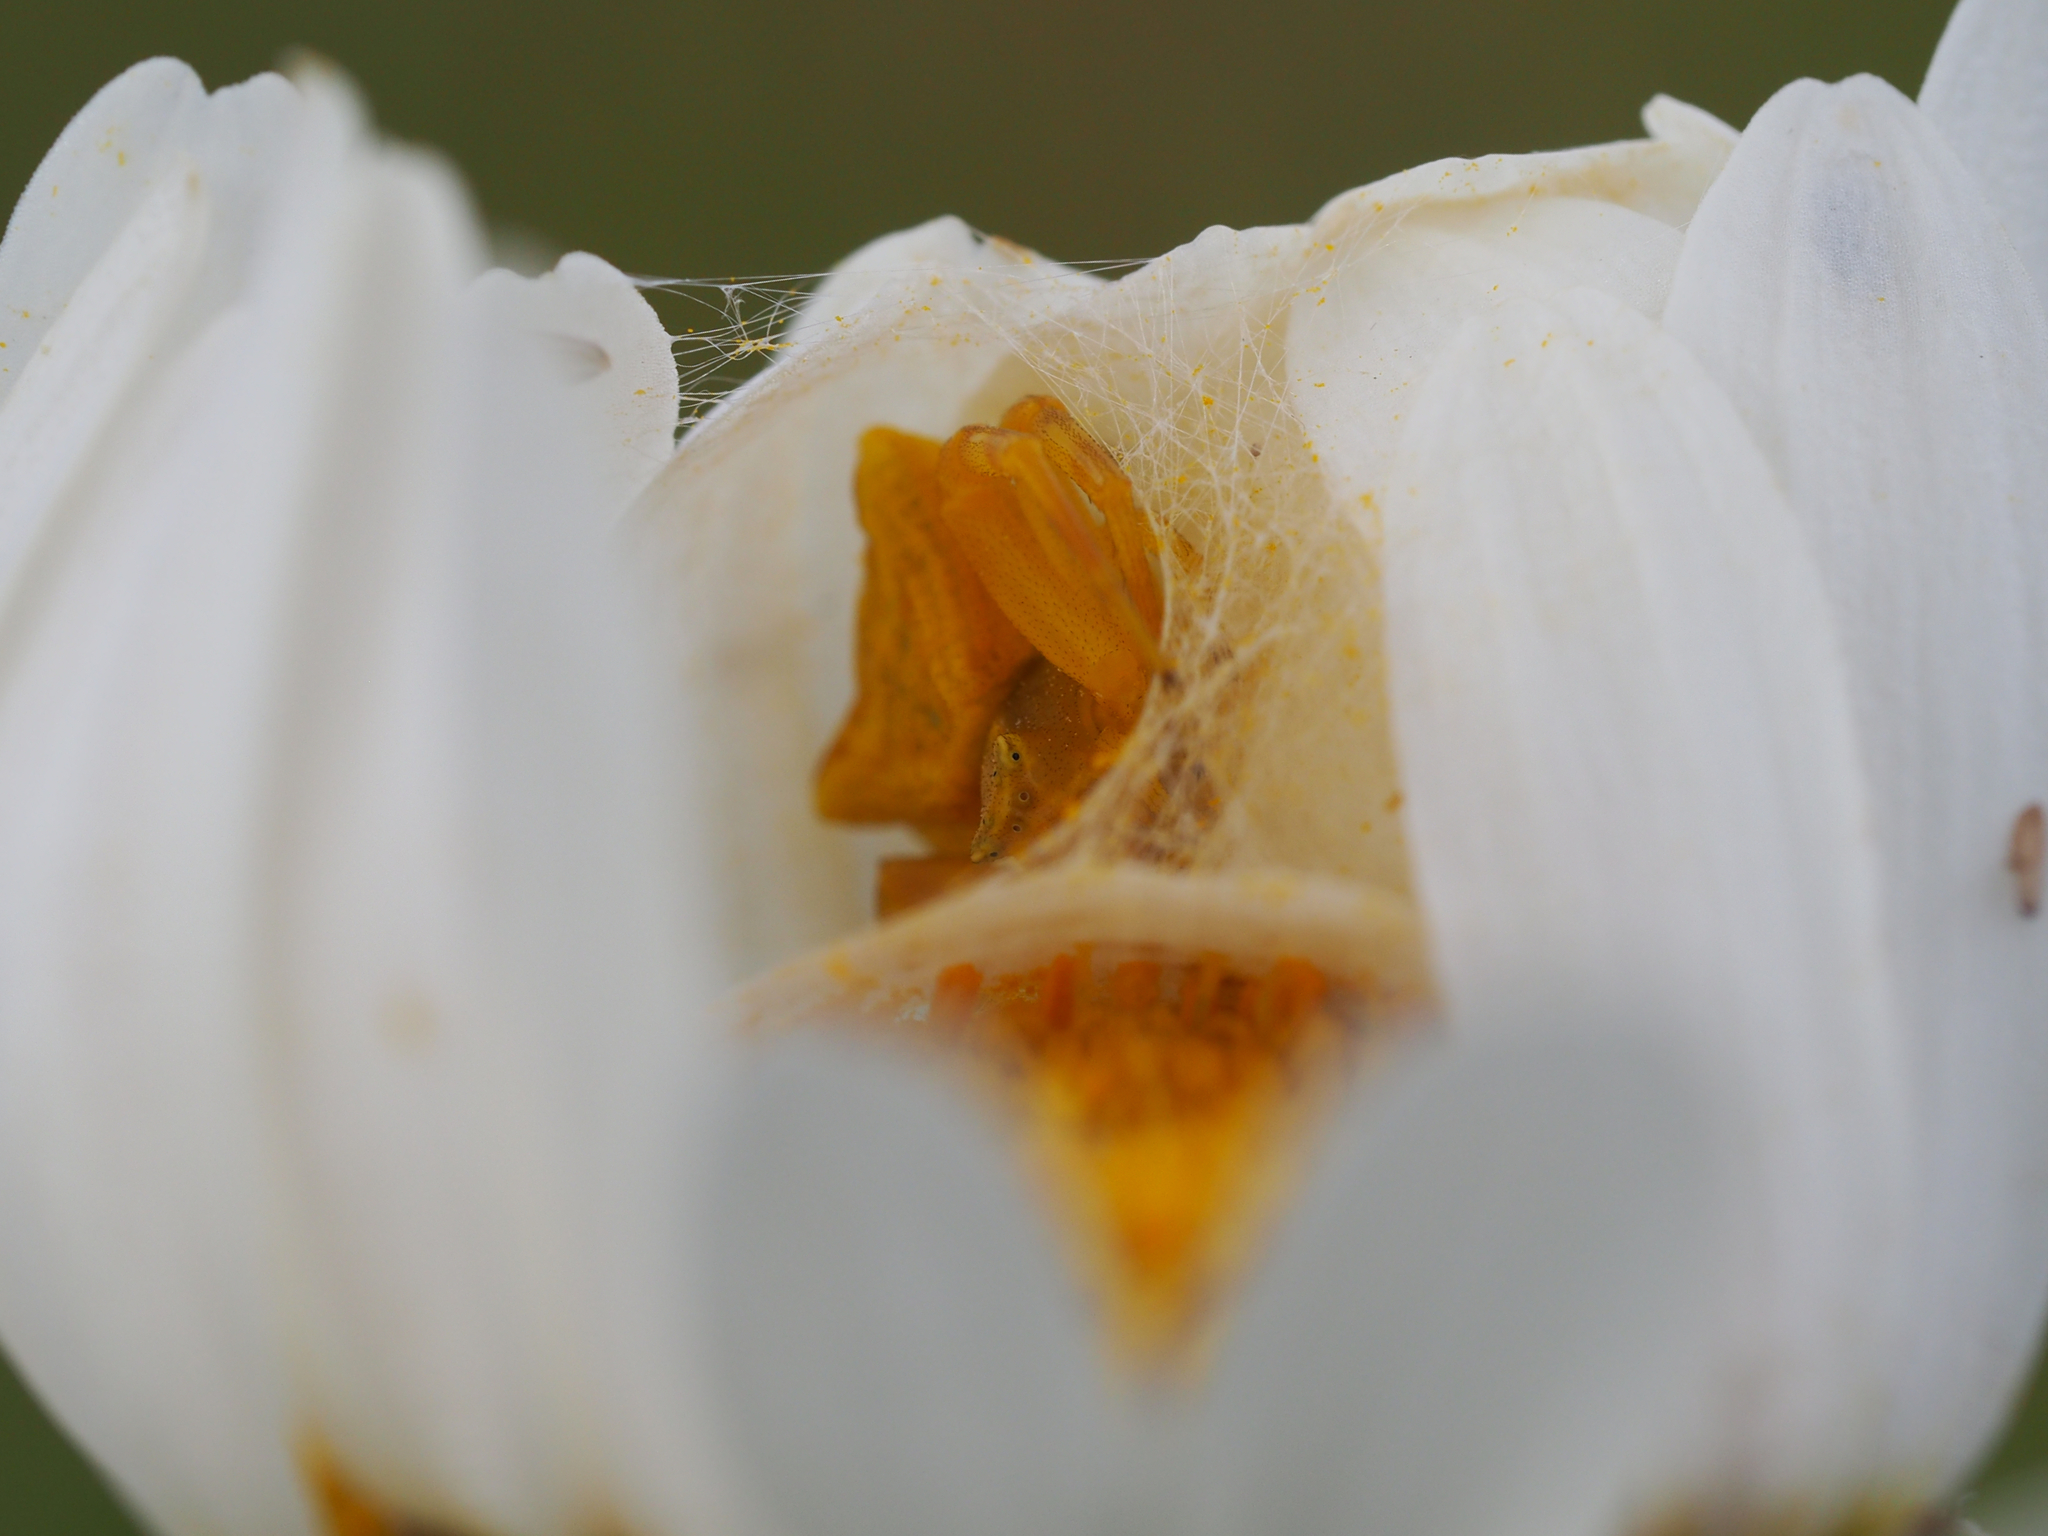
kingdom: Animalia
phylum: Arthropoda
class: Arachnida
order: Araneae
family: Thomisidae
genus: Thomisus
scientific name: Thomisus onustus
